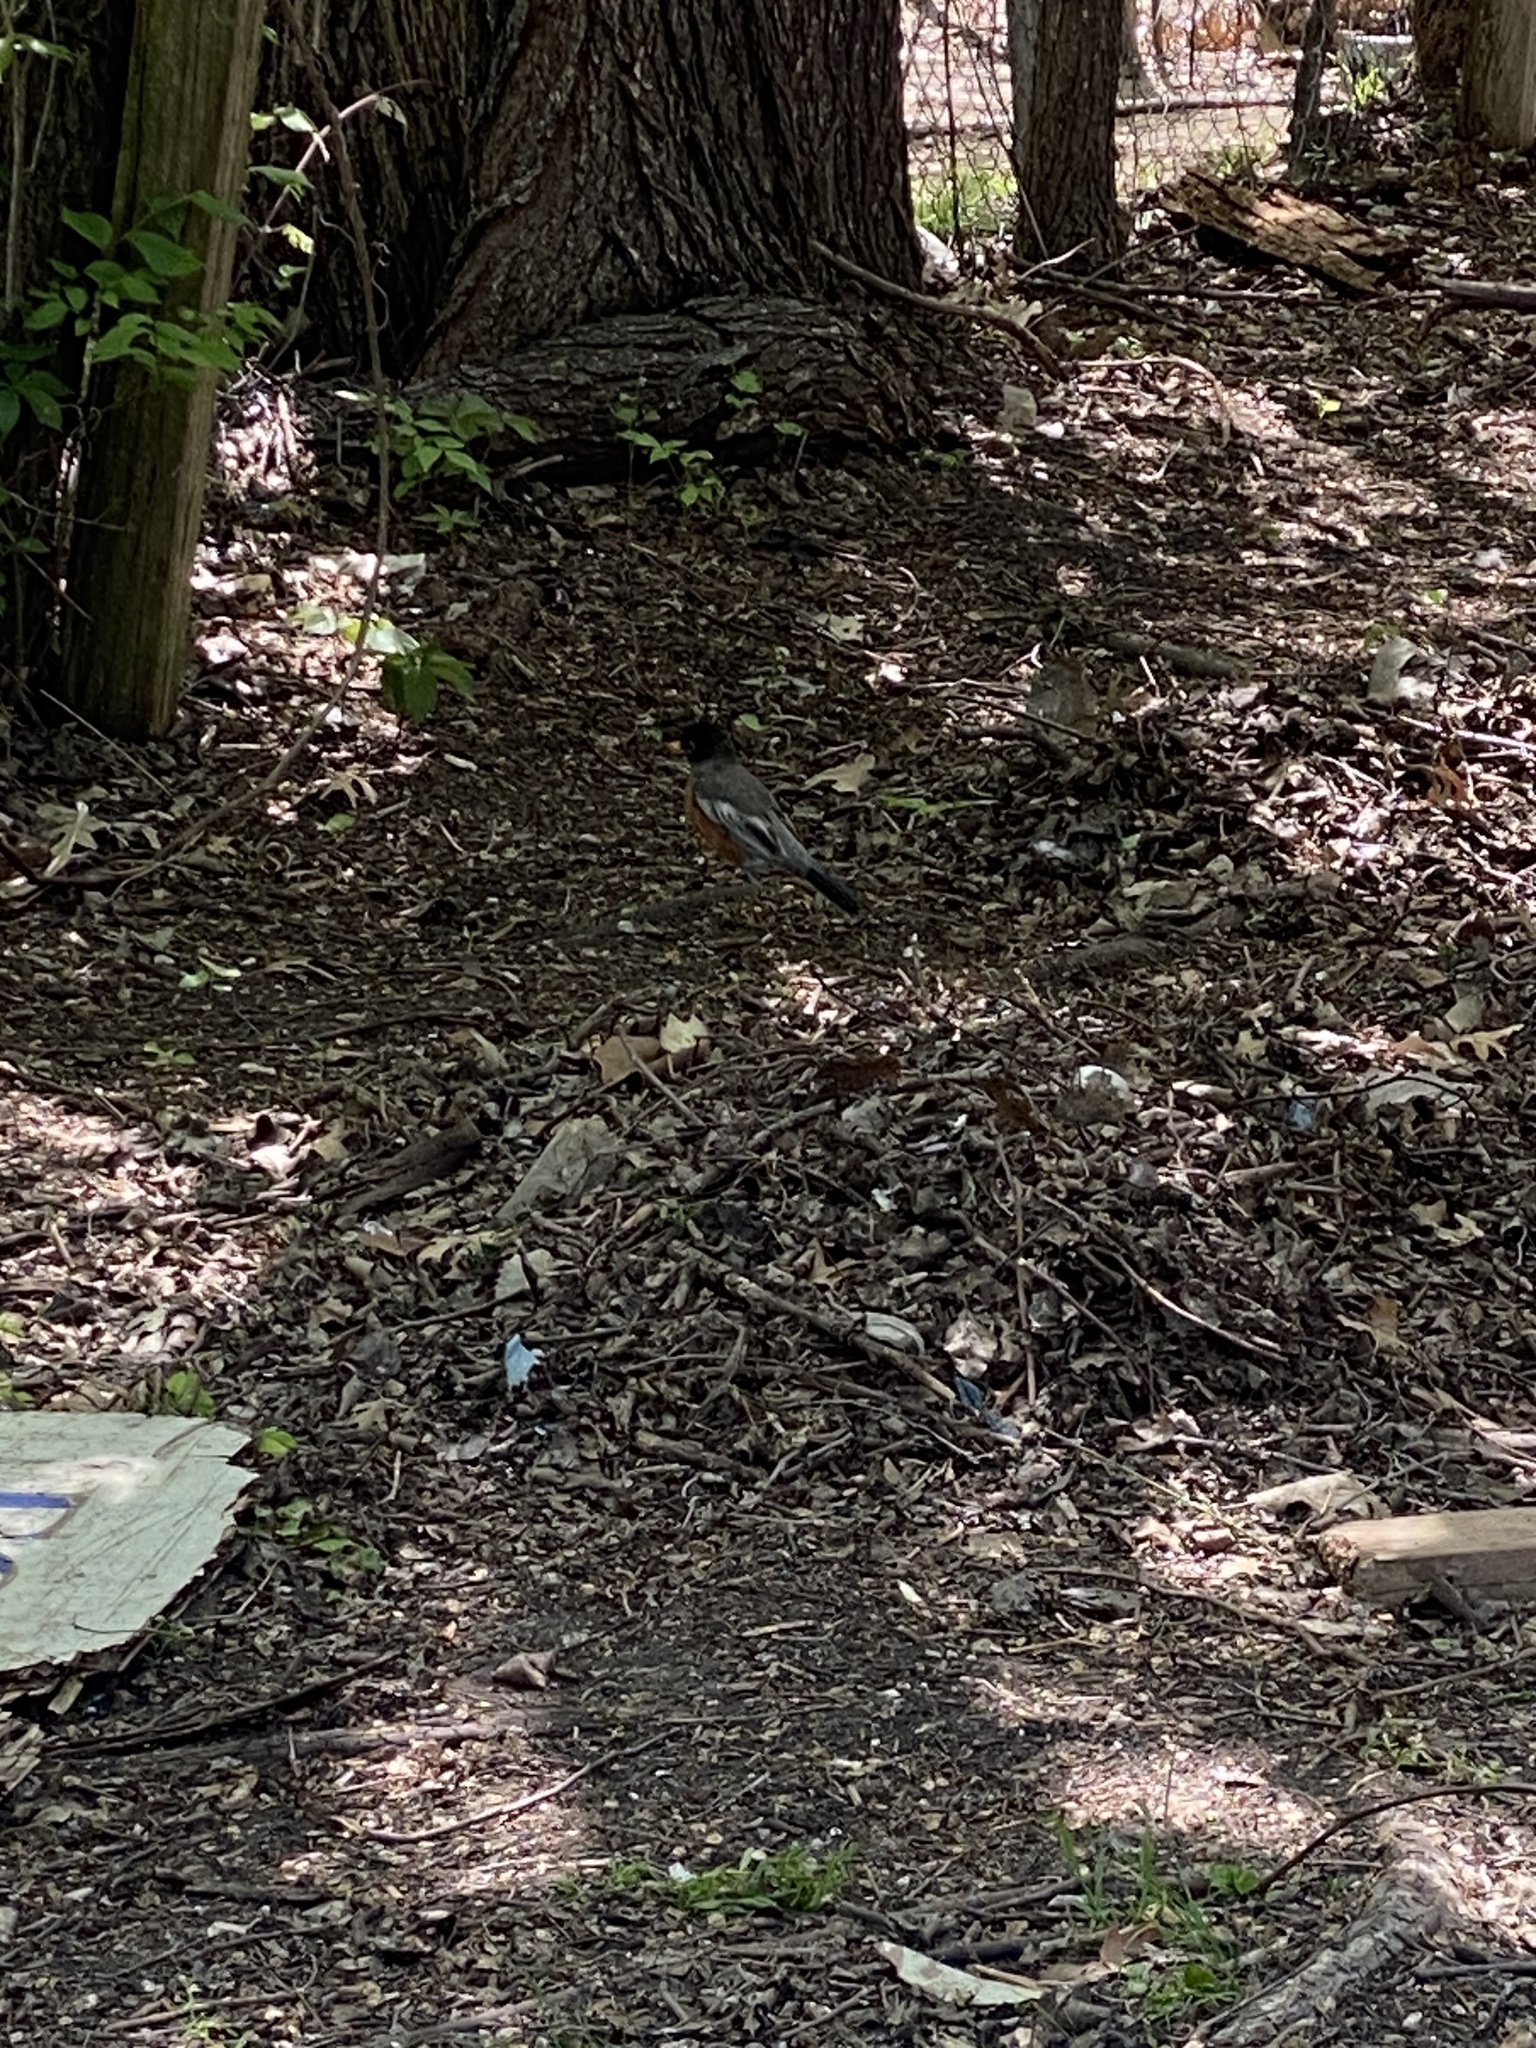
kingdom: Animalia
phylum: Chordata
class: Aves
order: Passeriformes
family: Turdidae
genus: Turdus
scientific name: Turdus migratorius
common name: American robin
